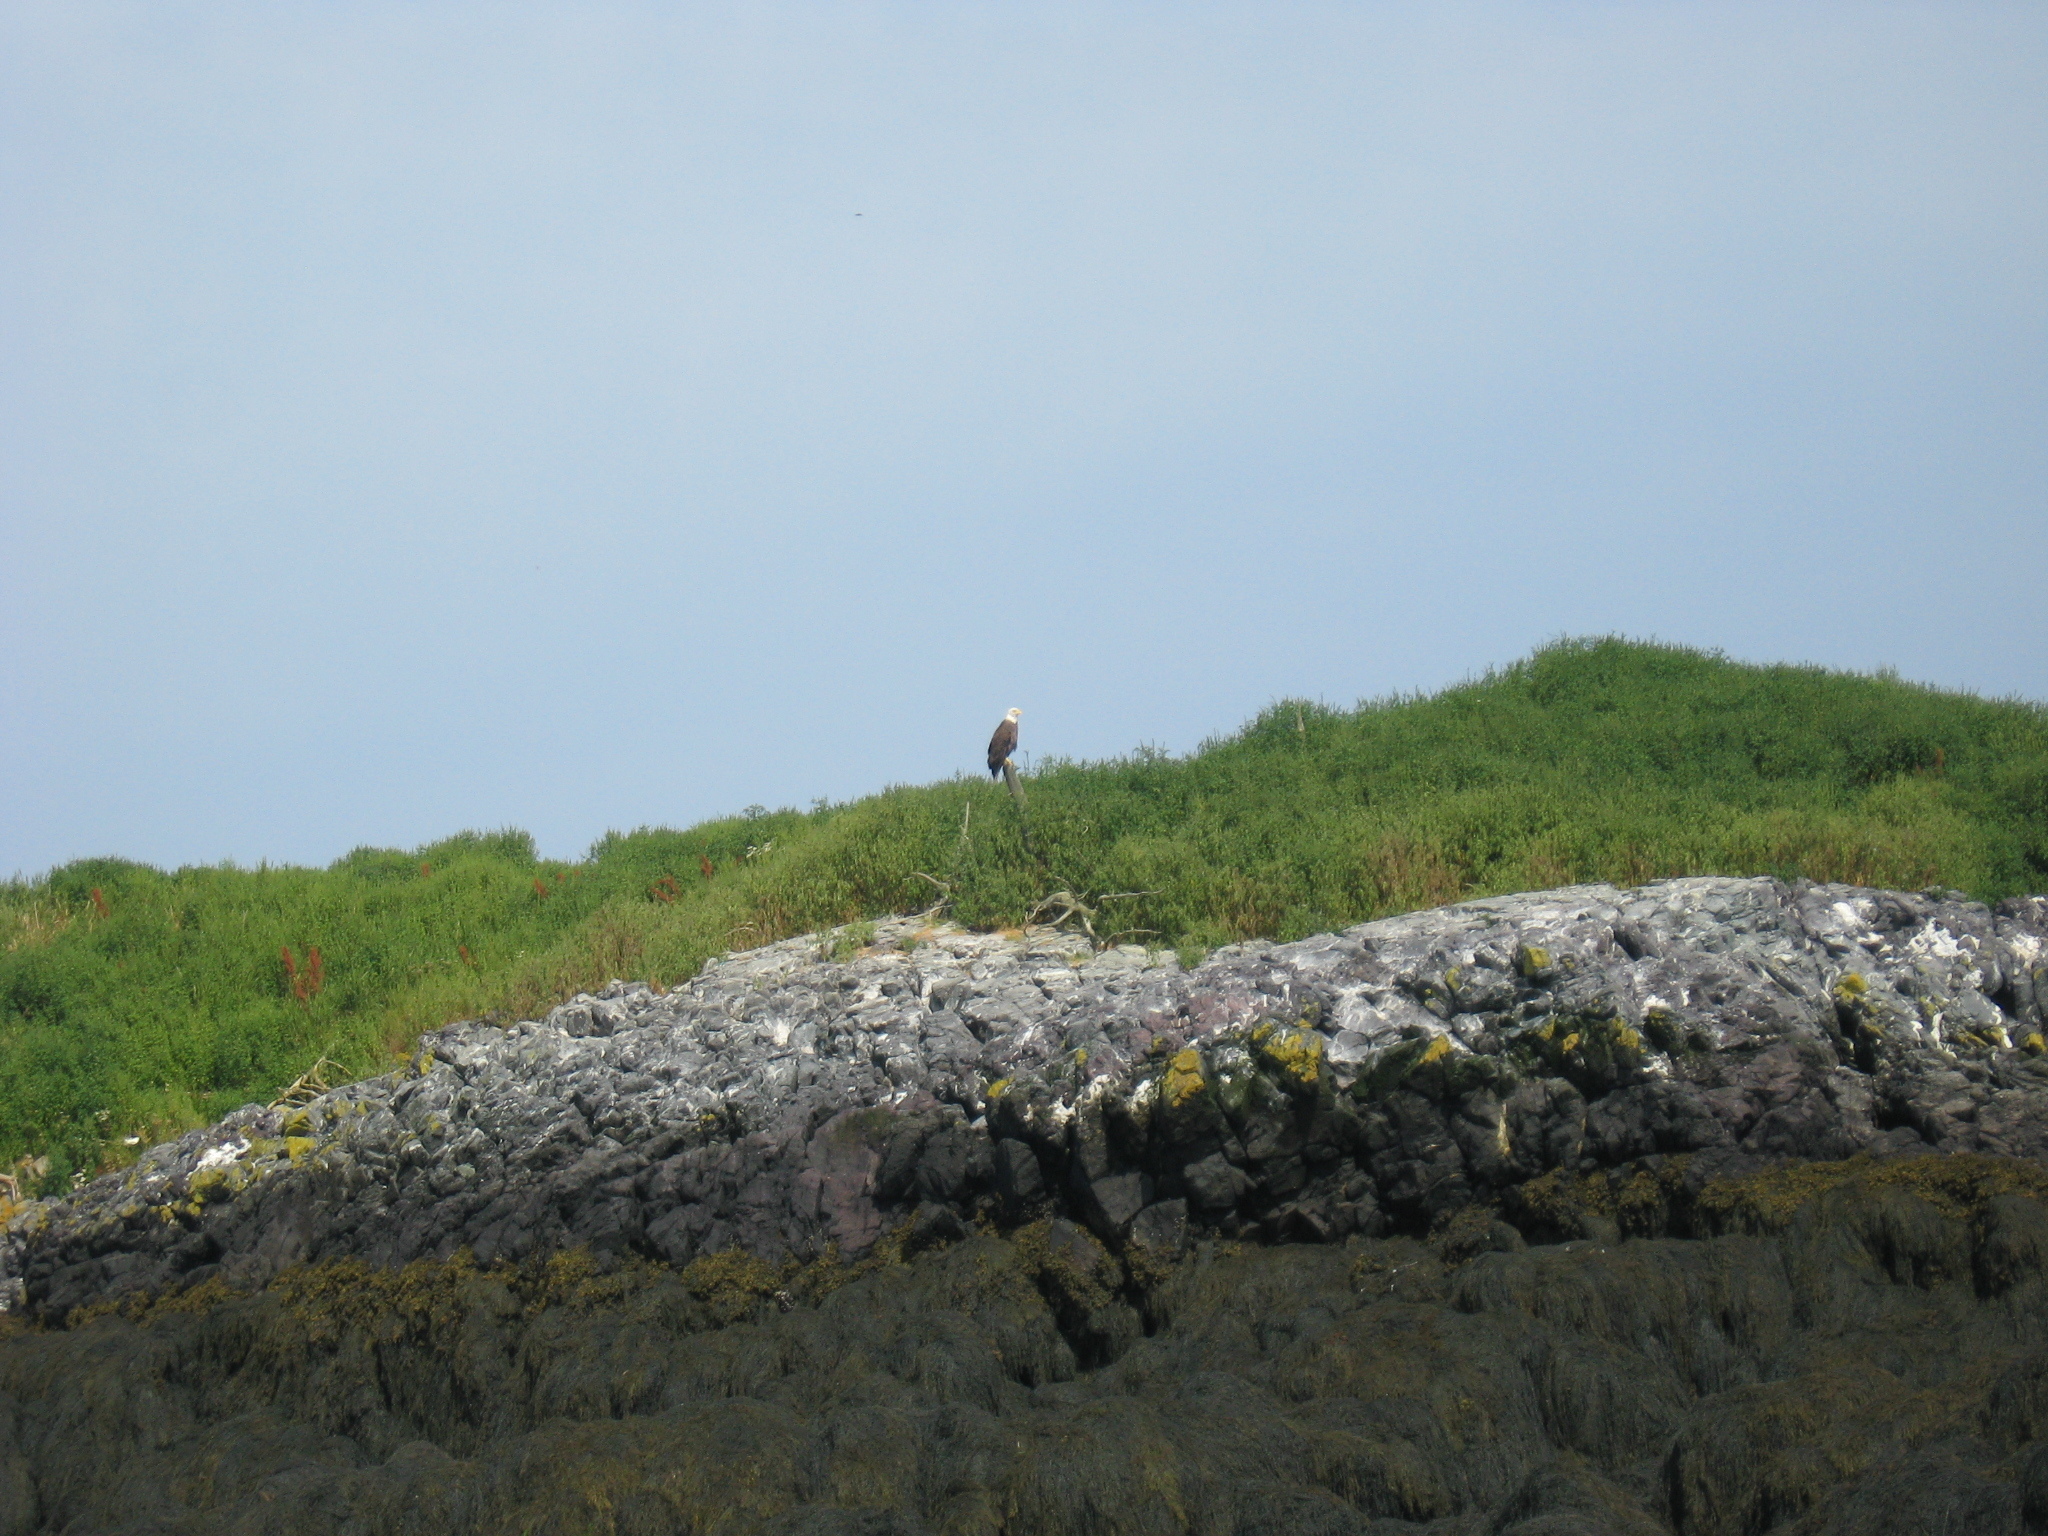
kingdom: Animalia
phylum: Chordata
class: Aves
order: Accipitriformes
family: Accipitridae
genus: Haliaeetus
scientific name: Haliaeetus leucocephalus
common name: Bald eagle
